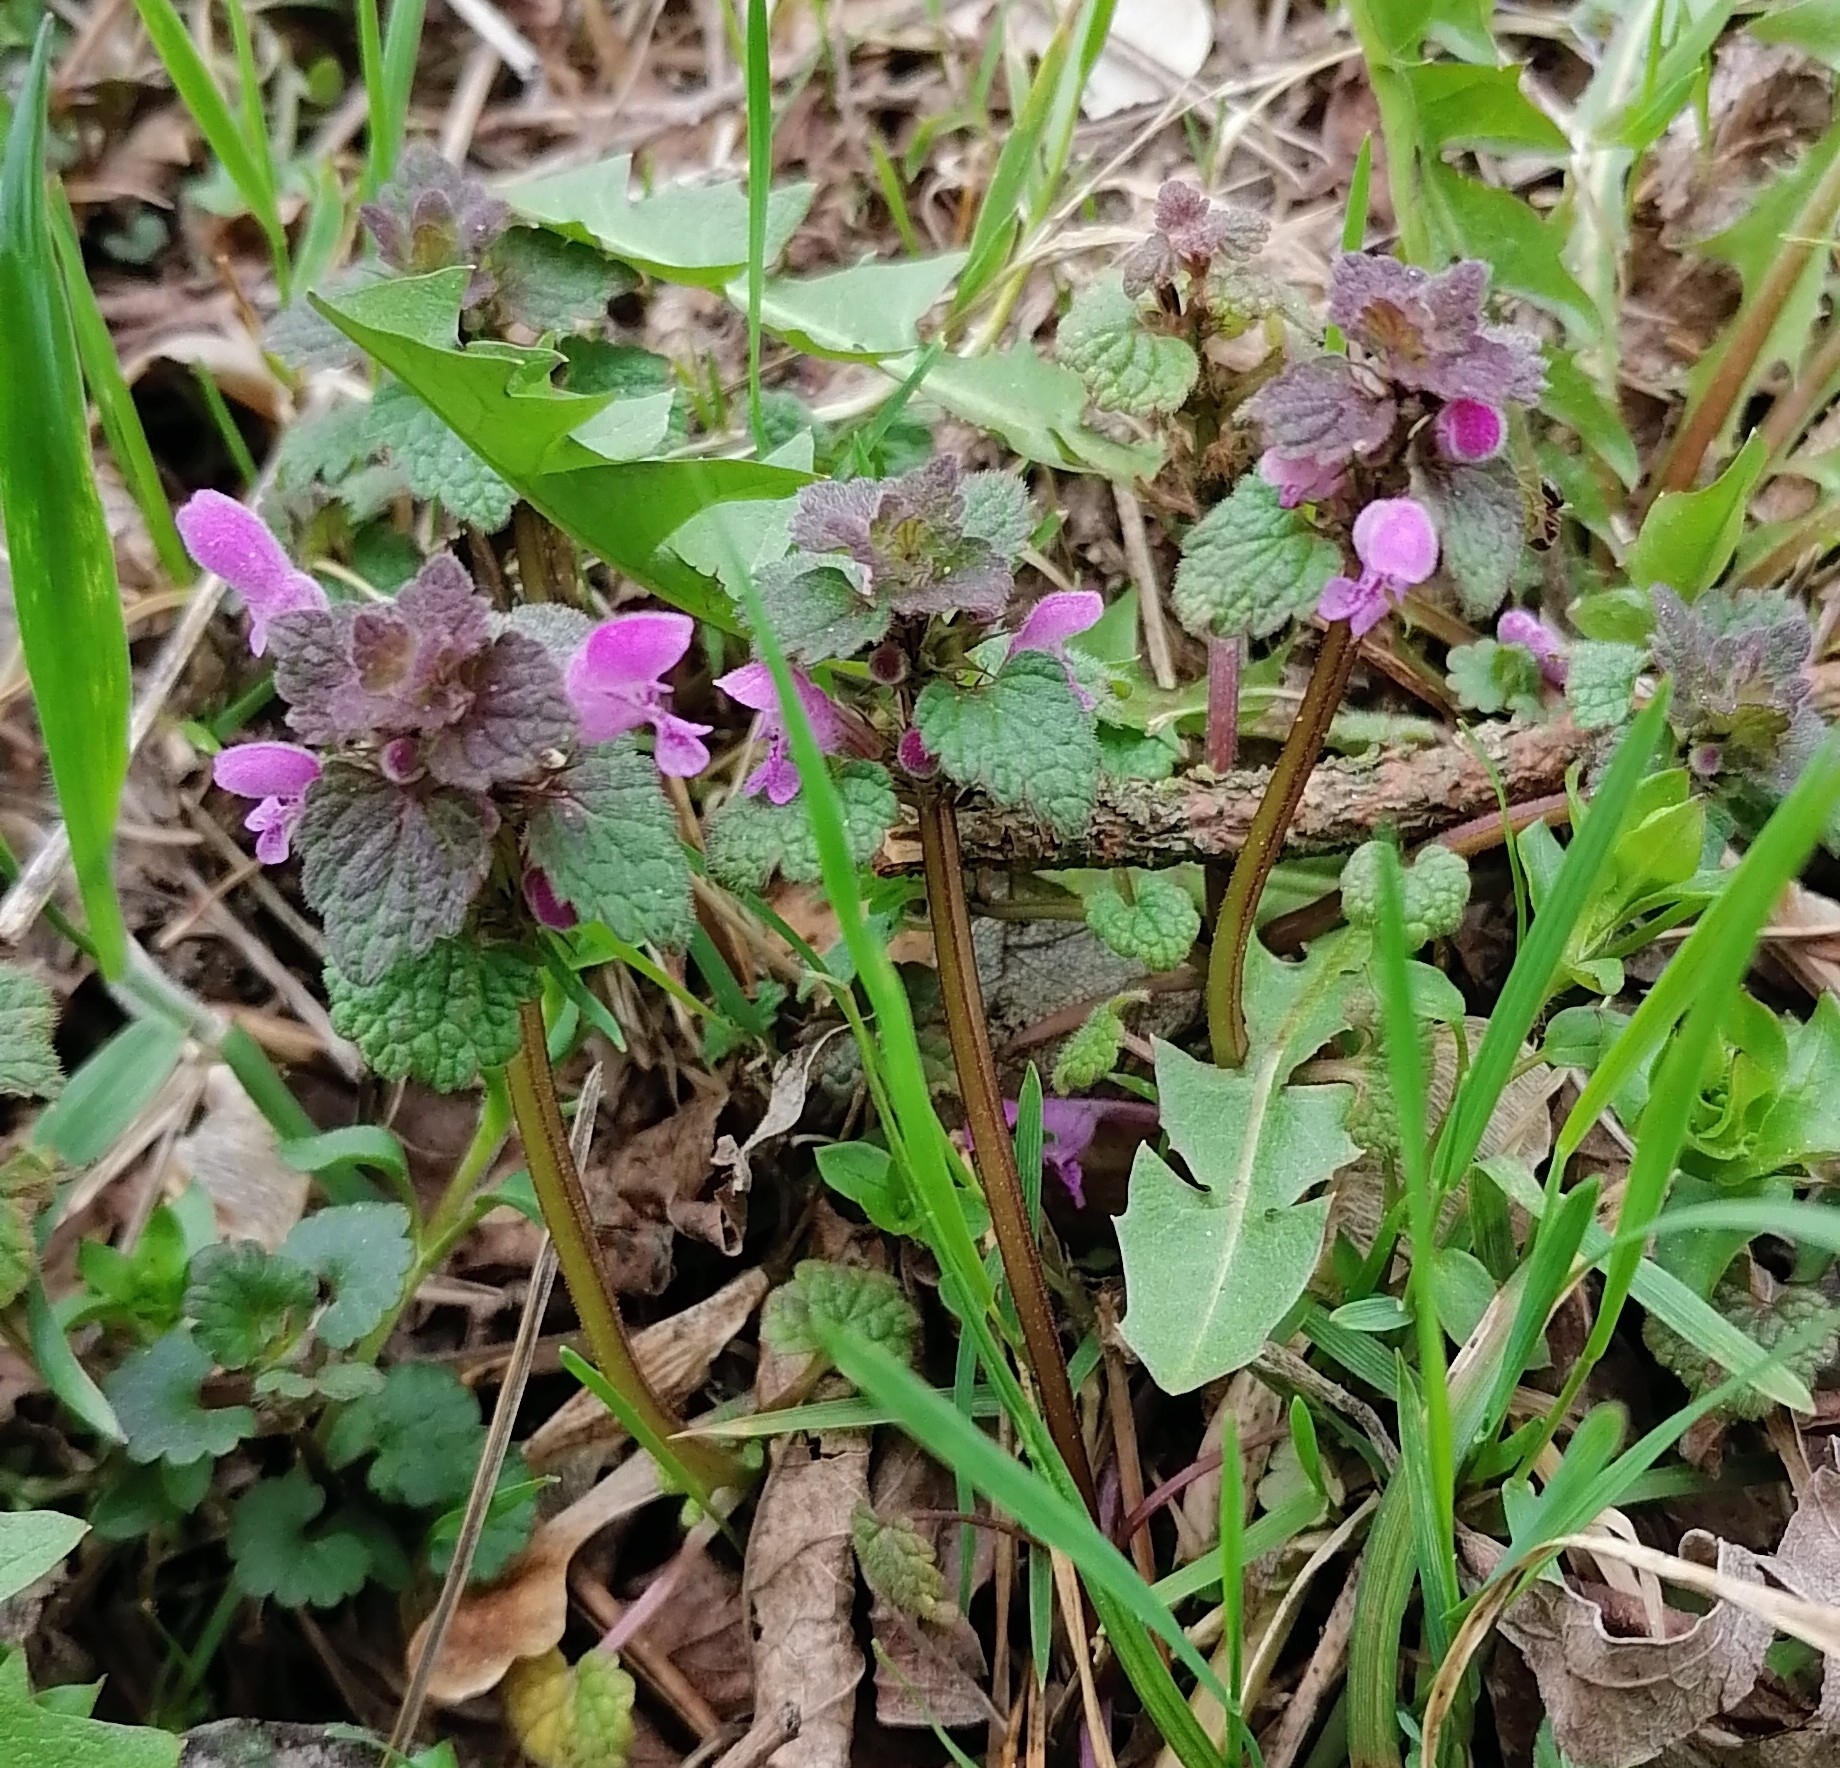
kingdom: Plantae
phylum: Tracheophyta
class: Magnoliopsida
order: Lamiales
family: Lamiaceae
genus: Lamium
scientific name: Lamium purpureum
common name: Red dead-nettle
